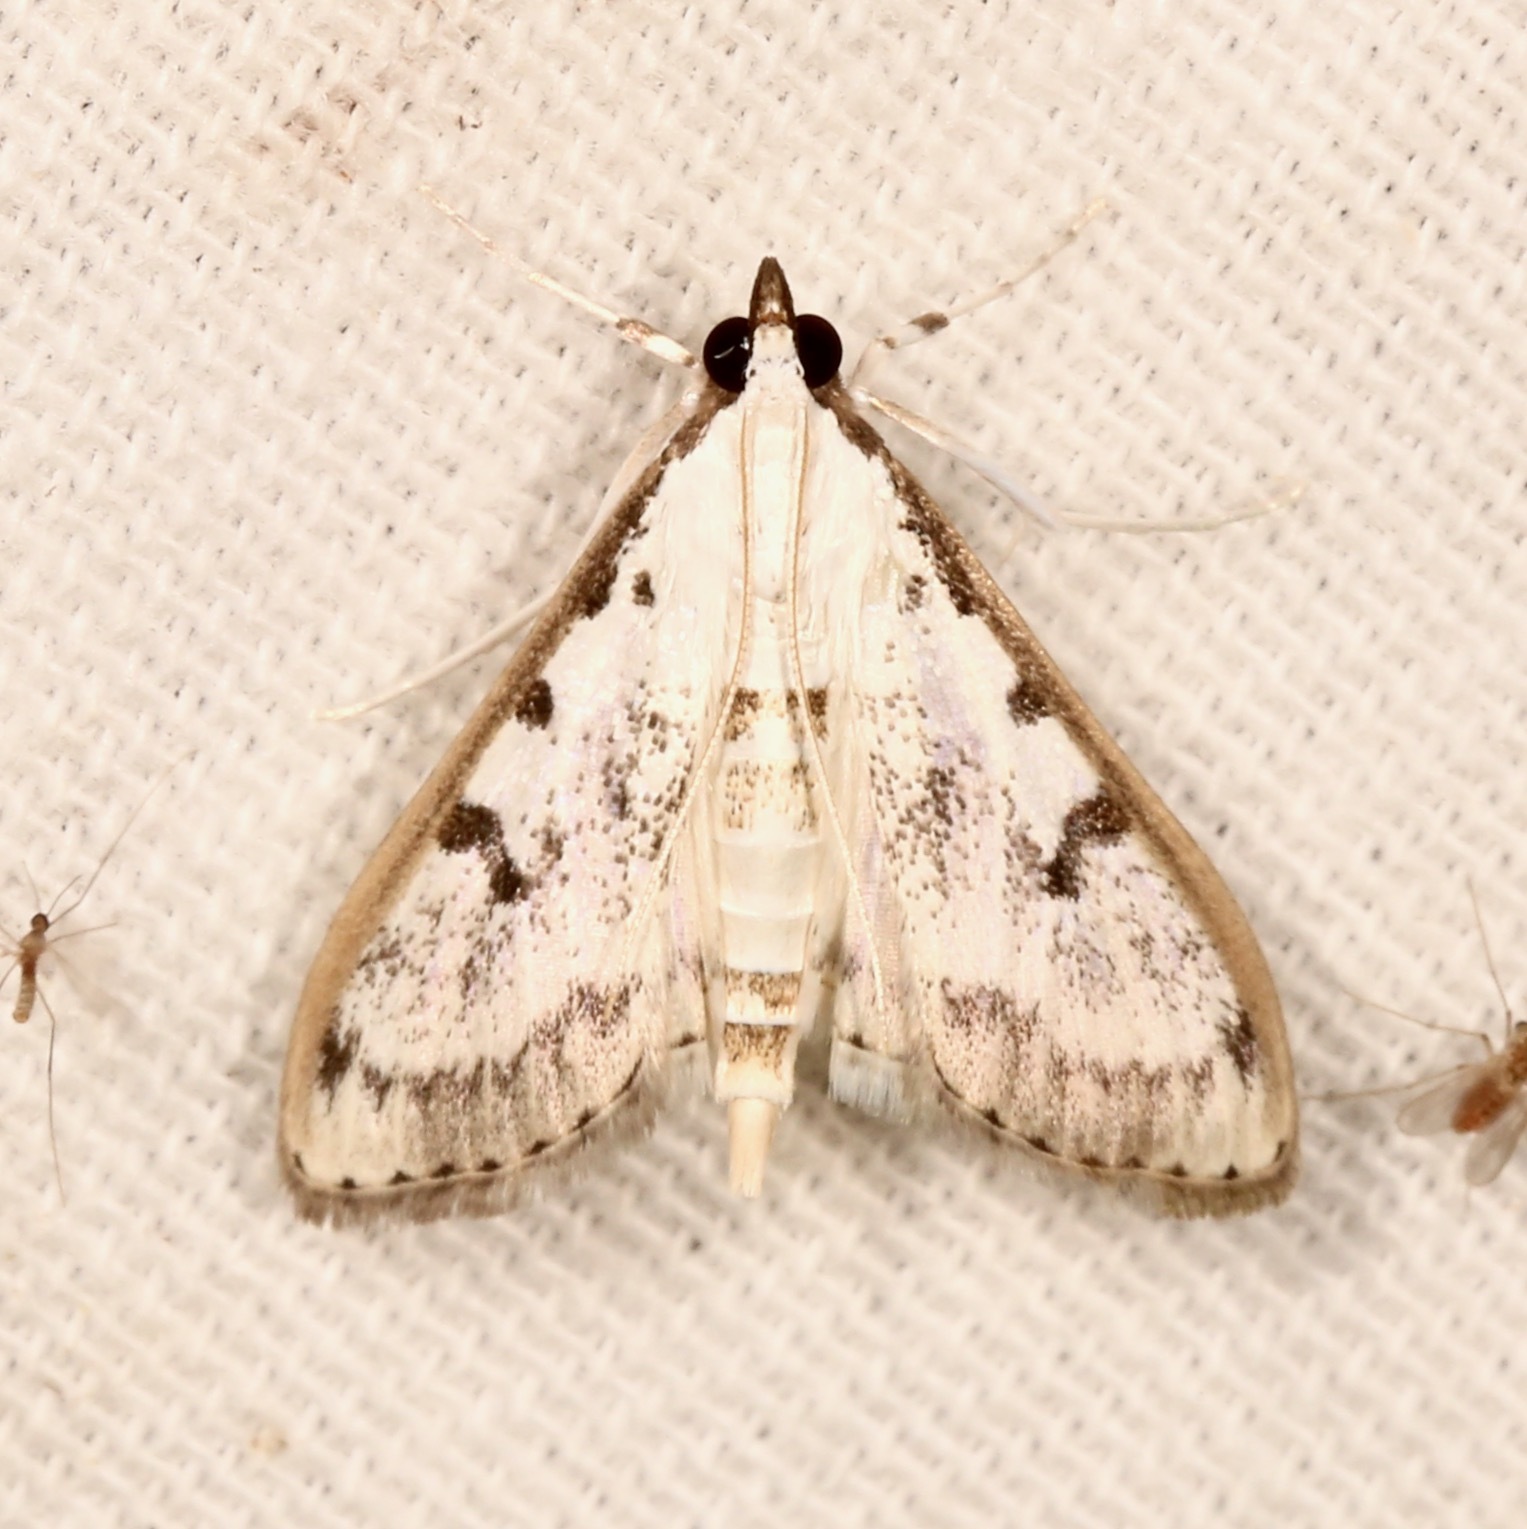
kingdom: Animalia
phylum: Arthropoda
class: Insecta
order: Lepidoptera
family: Crambidae
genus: Palpita
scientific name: Palpita gracilalis
